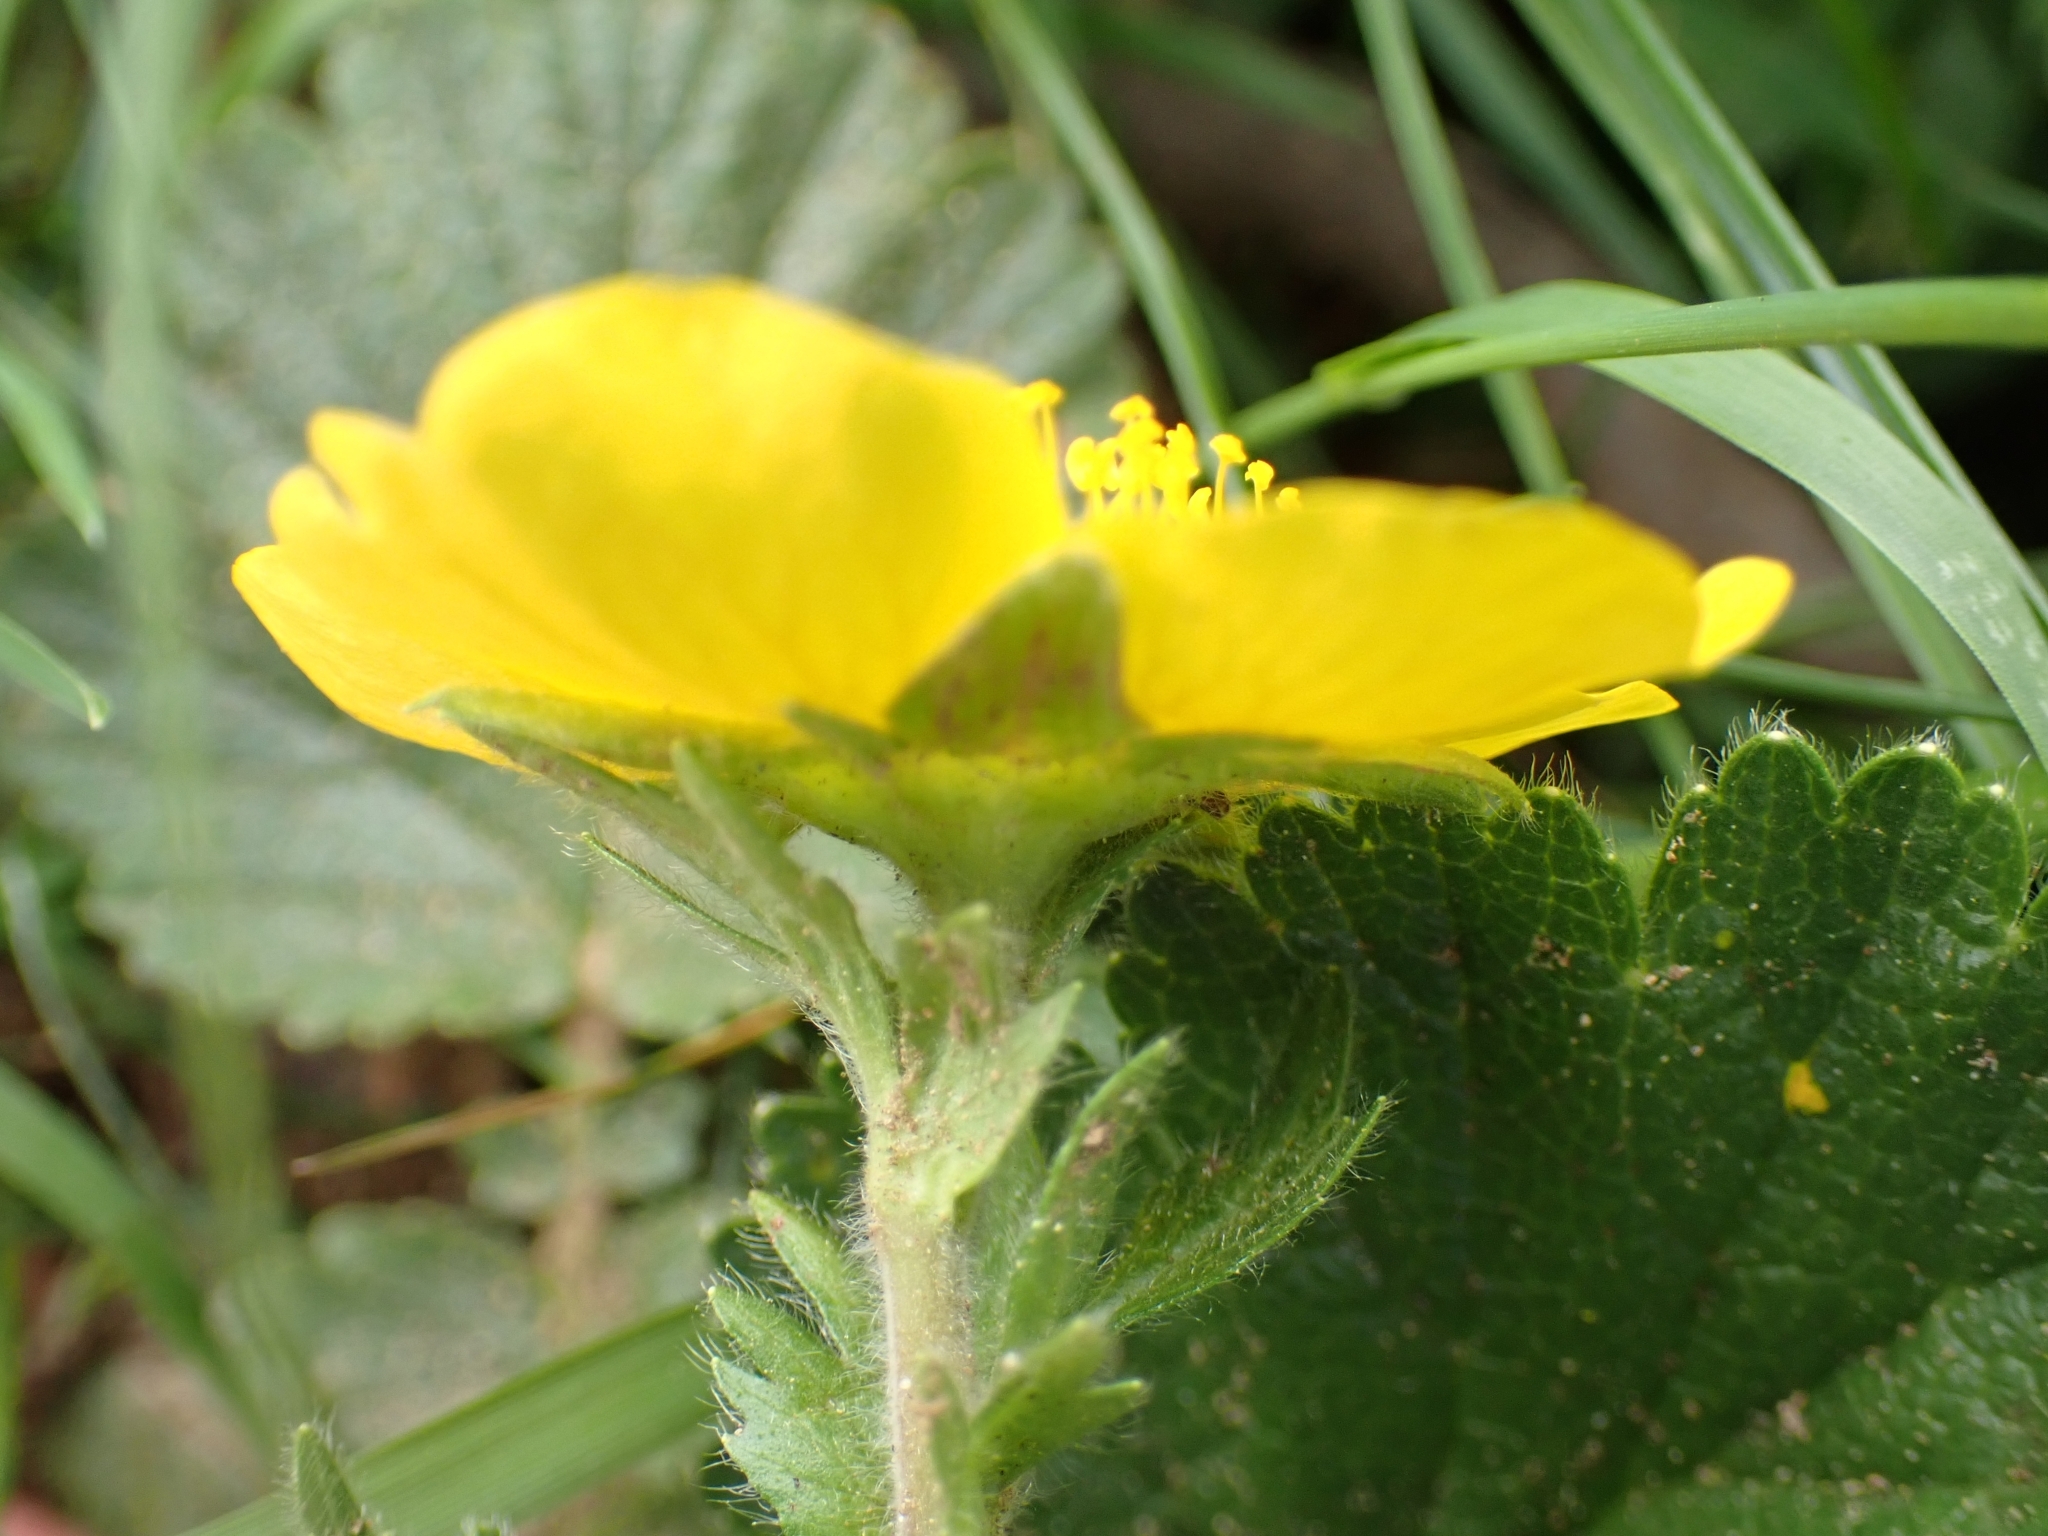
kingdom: Plantae
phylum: Tracheophyta
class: Magnoliopsida
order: Rosales
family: Rosaceae
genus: Geum
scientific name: Geum montanum
